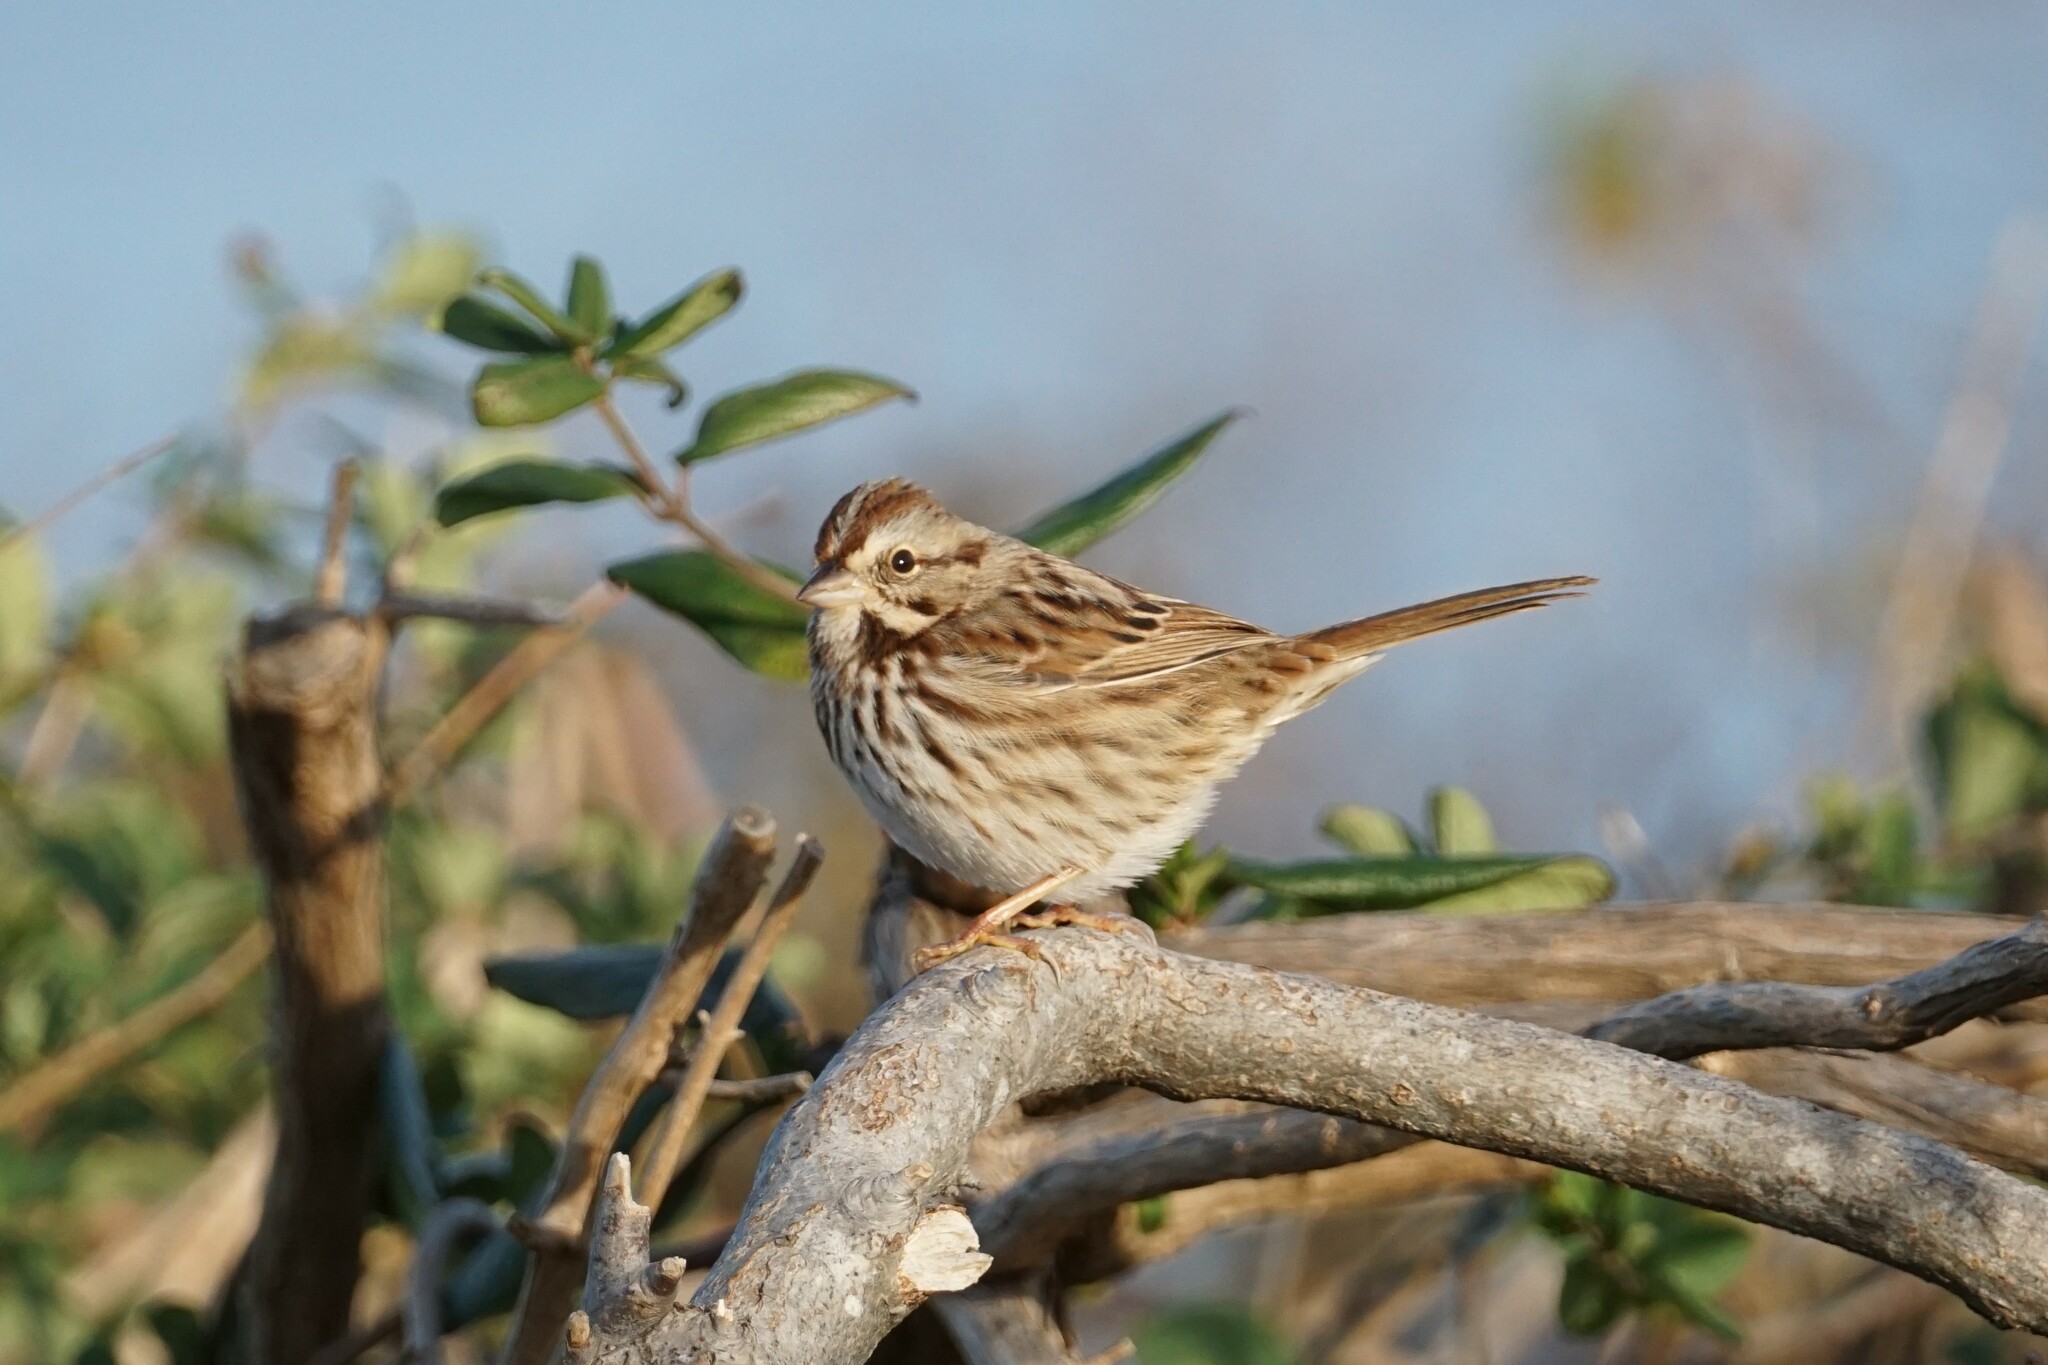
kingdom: Animalia
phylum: Chordata
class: Aves
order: Passeriformes
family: Passerellidae
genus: Melospiza
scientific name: Melospiza melodia
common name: Song sparrow
